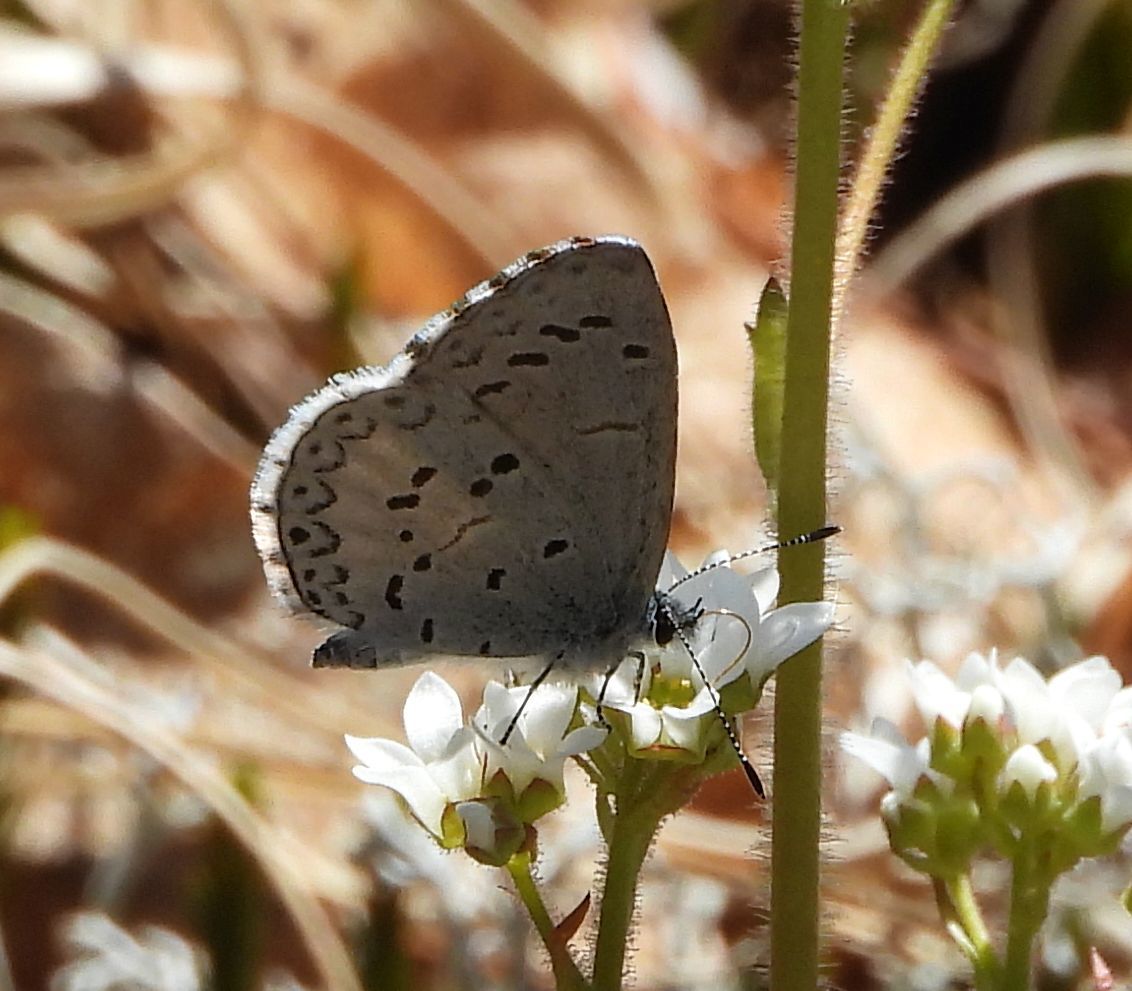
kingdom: Animalia
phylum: Arthropoda
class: Insecta
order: Lepidoptera
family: Lycaenidae
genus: Celastrina
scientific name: Celastrina lucia
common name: Lucia azure
